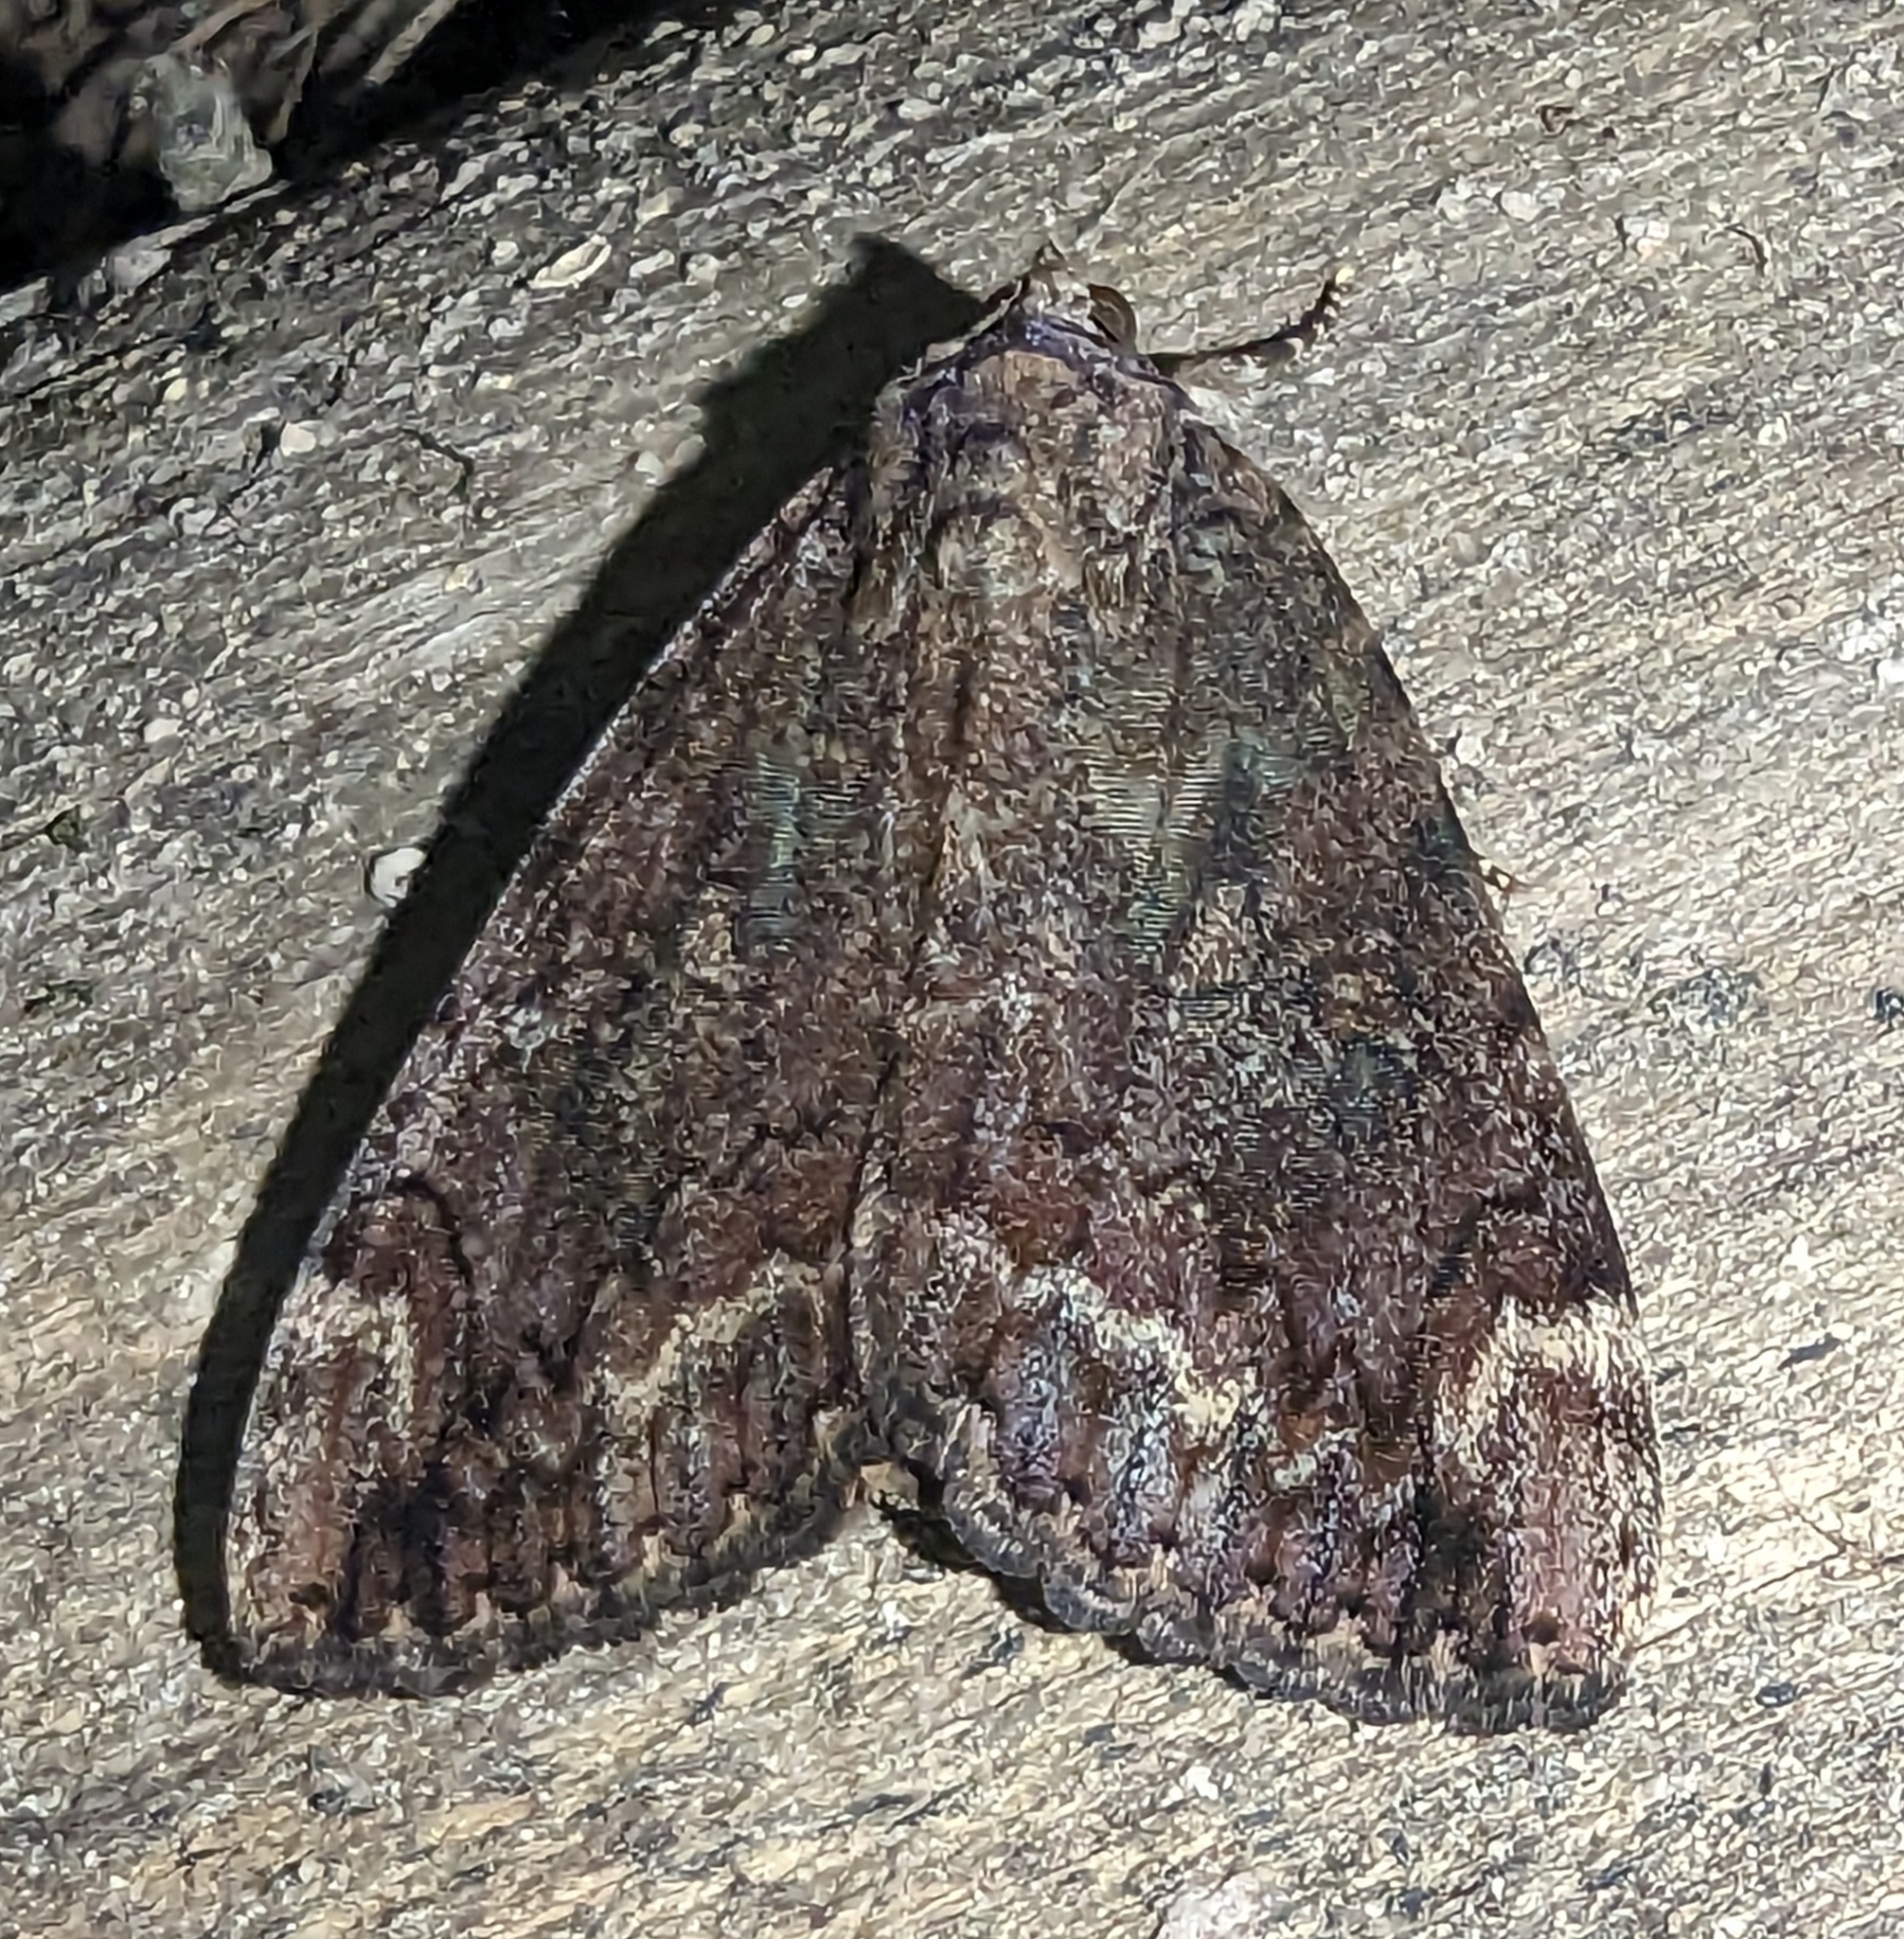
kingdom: Animalia
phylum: Arthropoda
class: Insecta
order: Lepidoptera
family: Erebidae
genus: Catocala
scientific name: Catocala innubens
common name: Betrothed underwing
